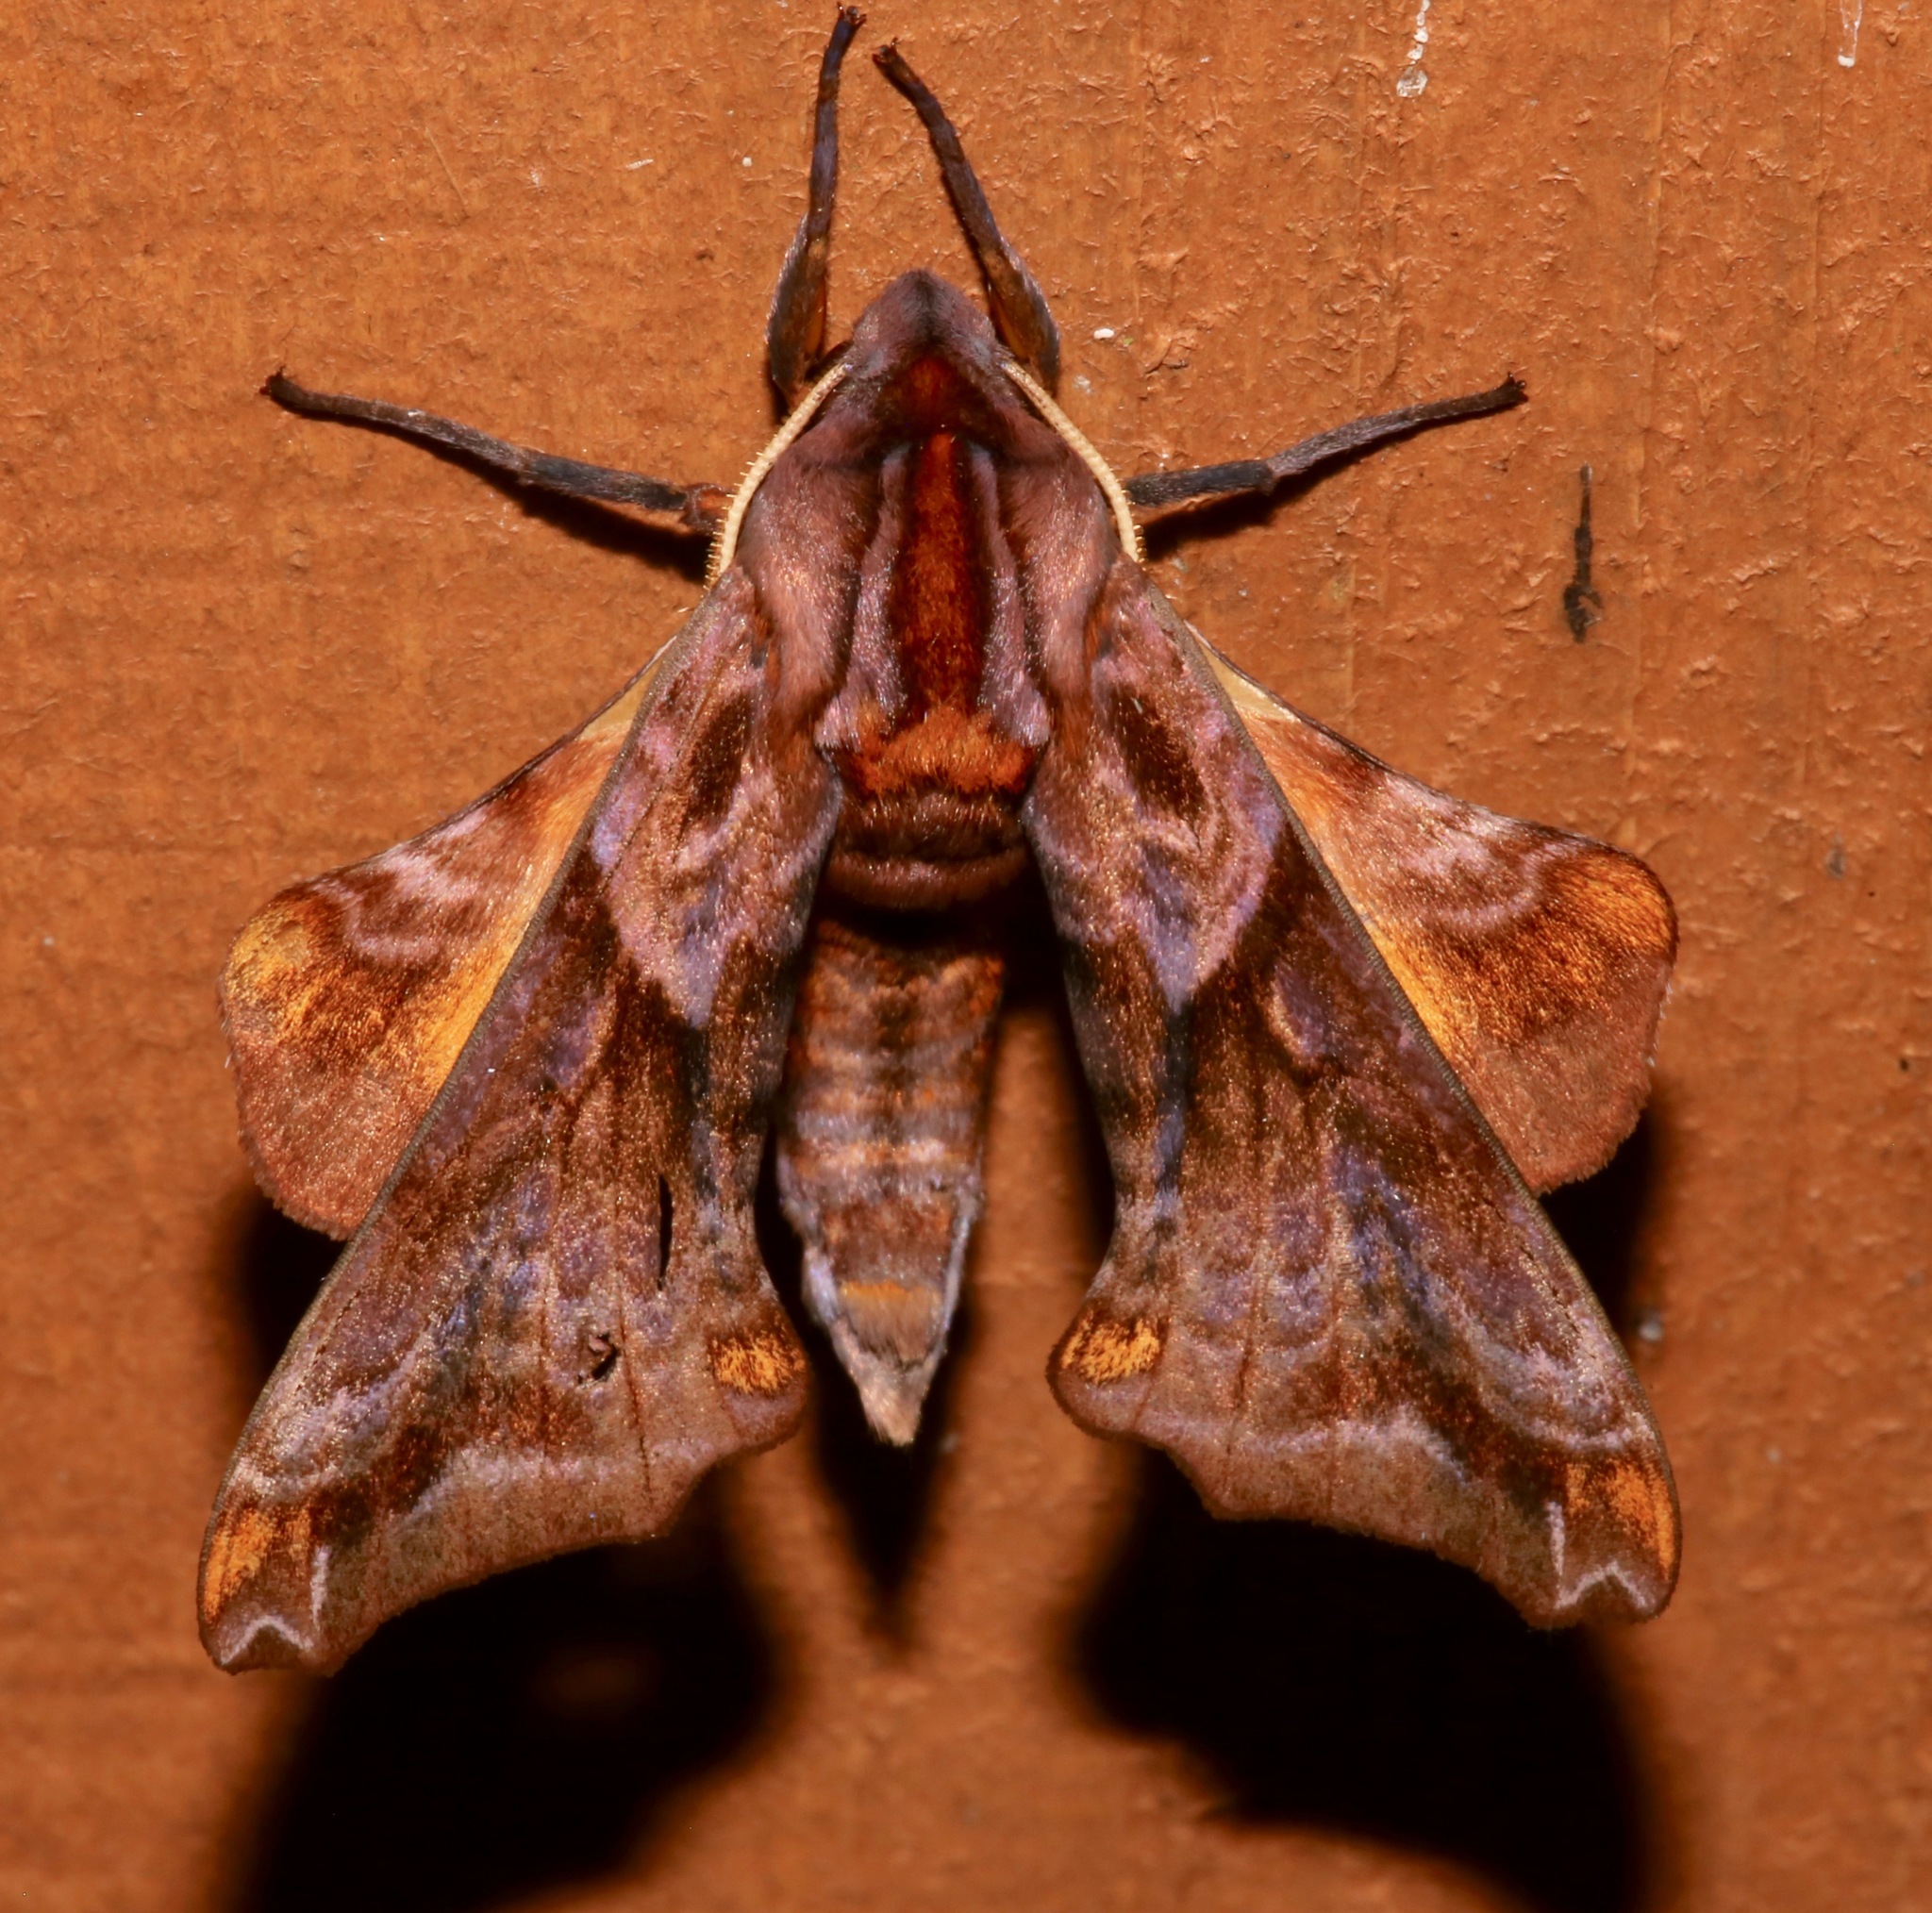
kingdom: Animalia
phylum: Arthropoda
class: Insecta
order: Lepidoptera
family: Sphingidae
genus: Paonias
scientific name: Paonias myops
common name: Small-eyed sphinx
